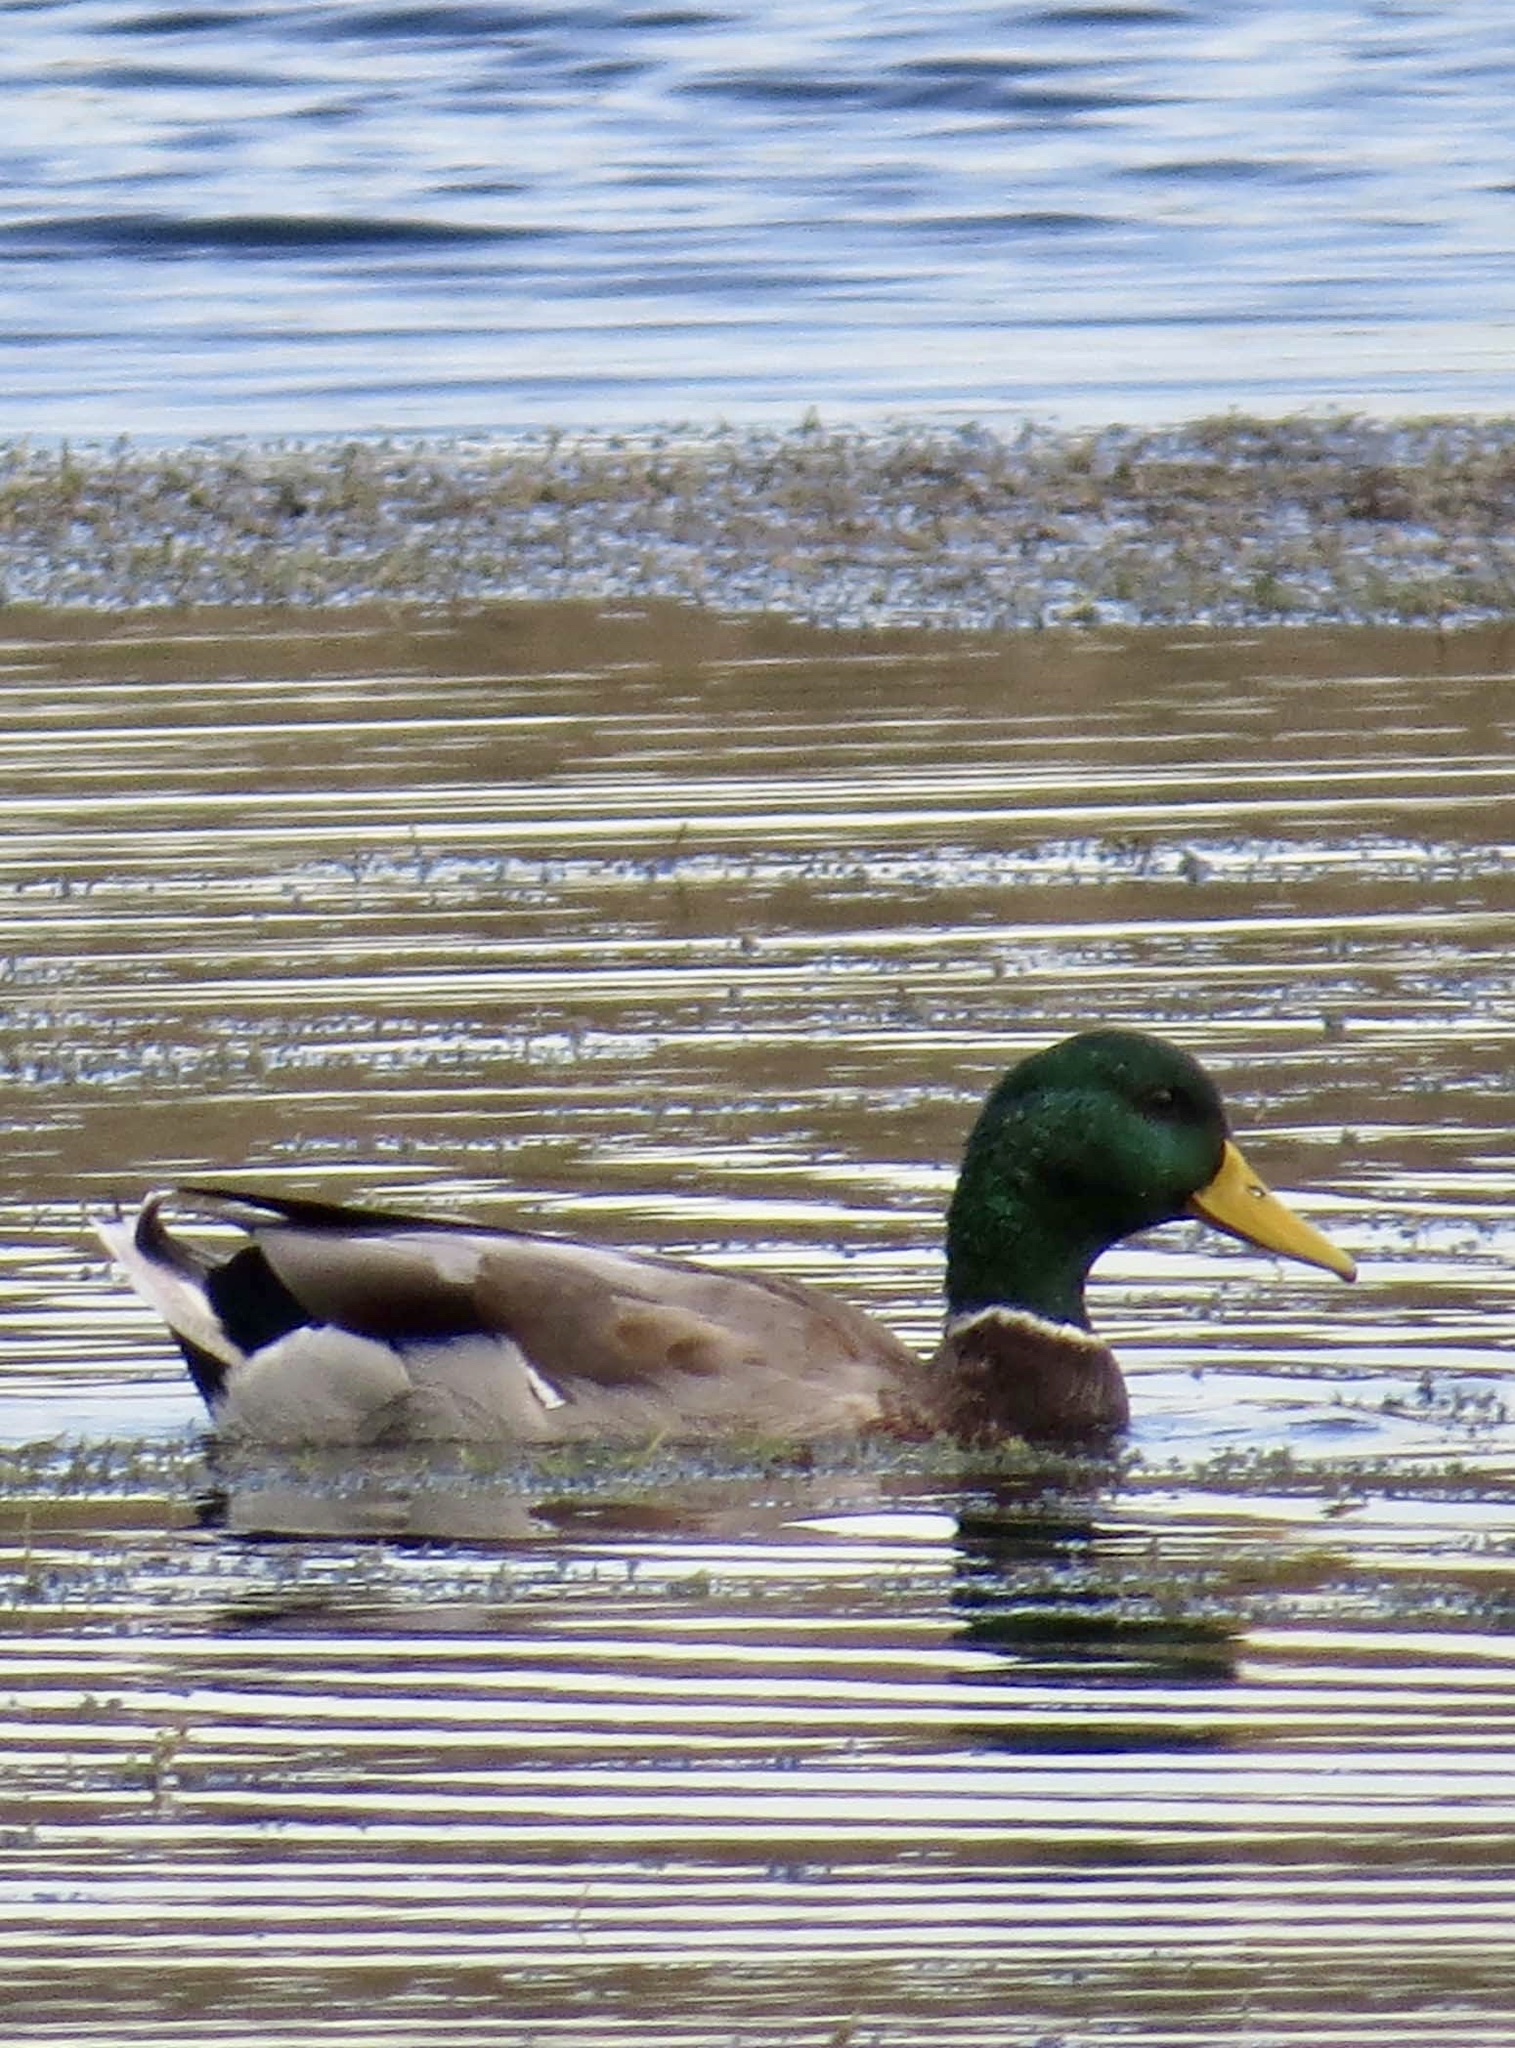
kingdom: Animalia
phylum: Chordata
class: Aves
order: Anseriformes
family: Anatidae
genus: Anas
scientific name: Anas platyrhynchos
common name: Mallard
